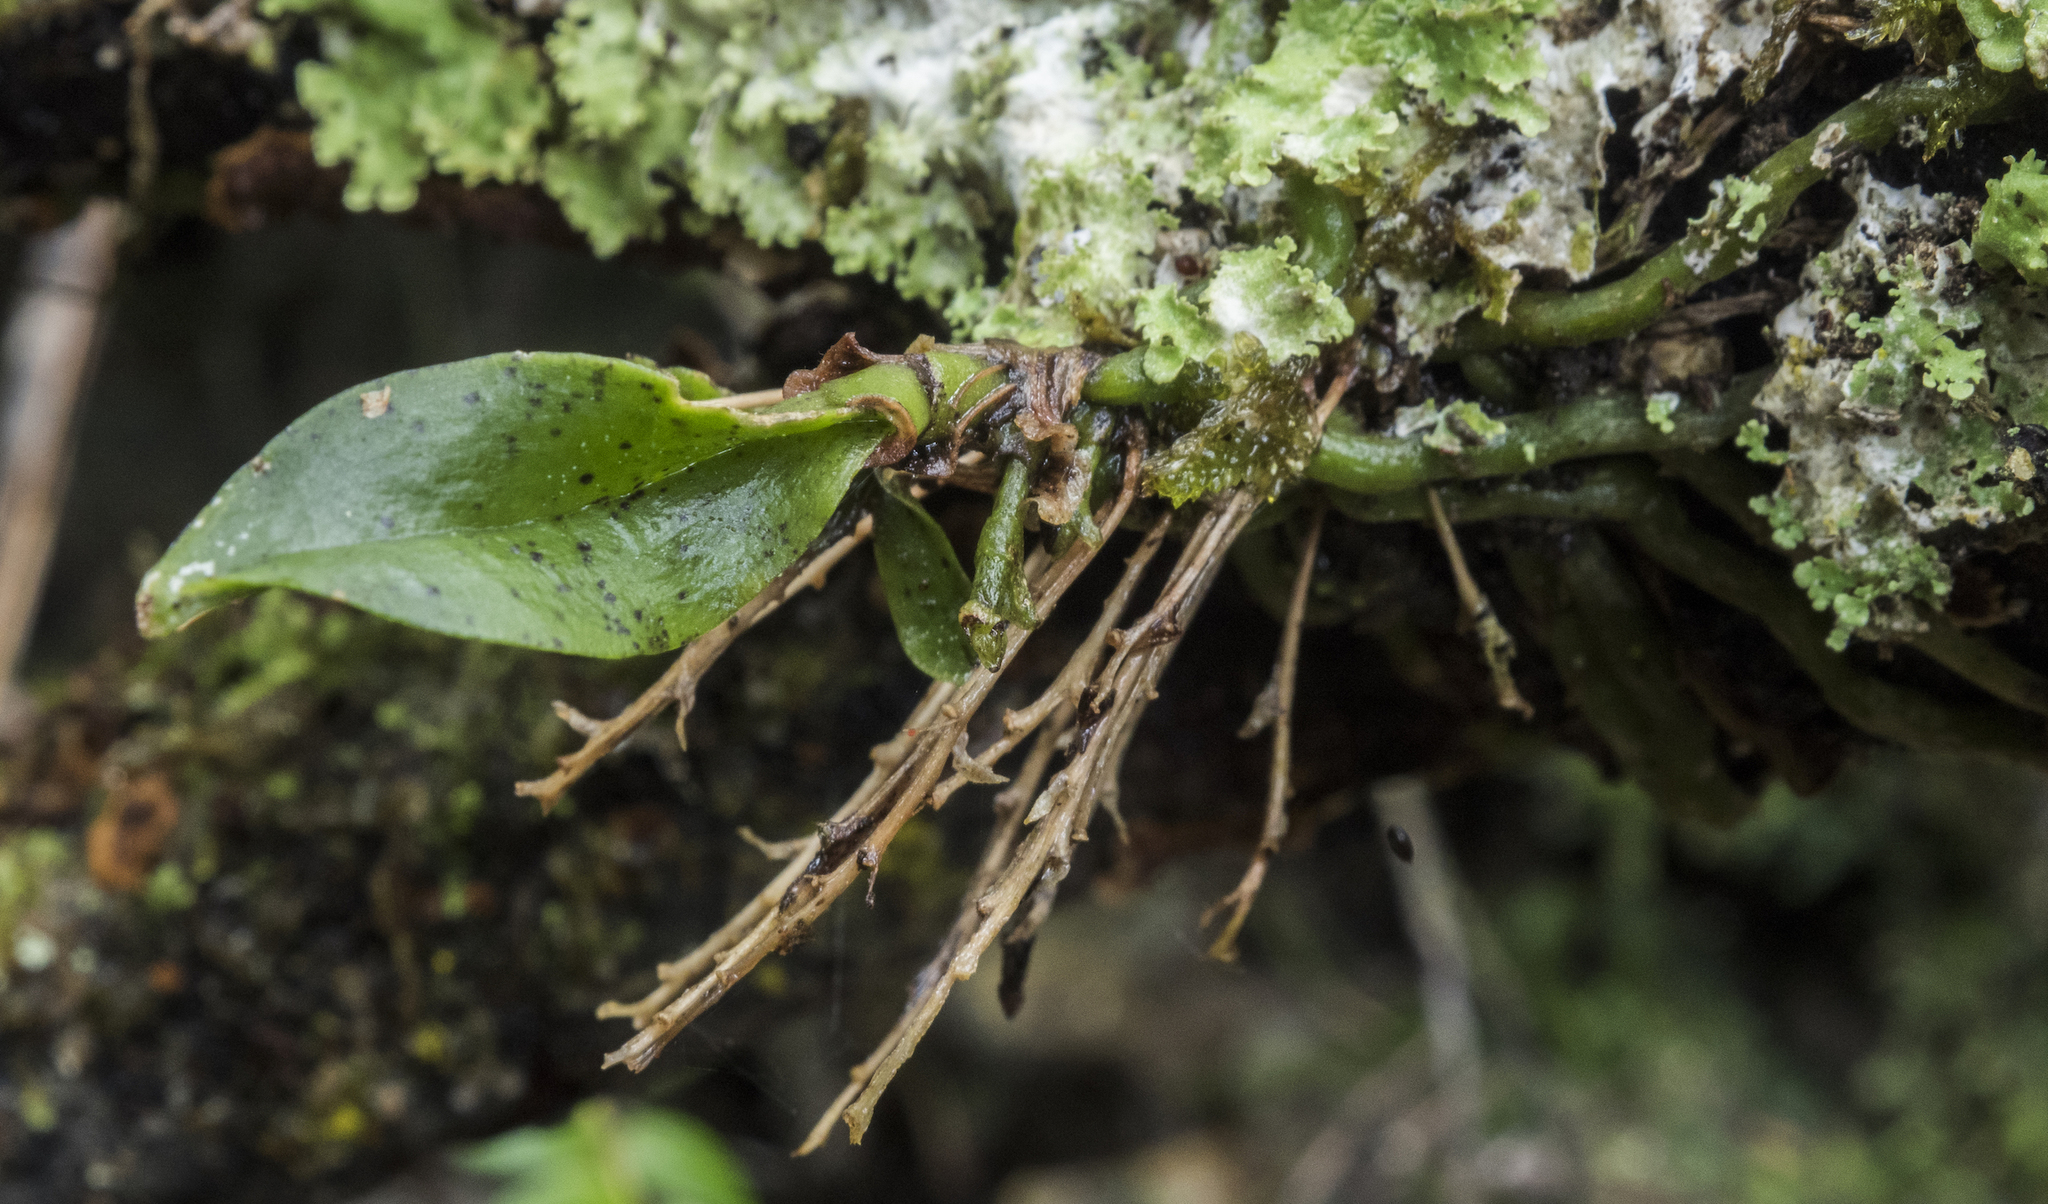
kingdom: Plantae
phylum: Tracheophyta
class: Liliopsida
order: Asparagales
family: Orchidaceae
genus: Drymoanthus
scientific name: Drymoanthus flavus
